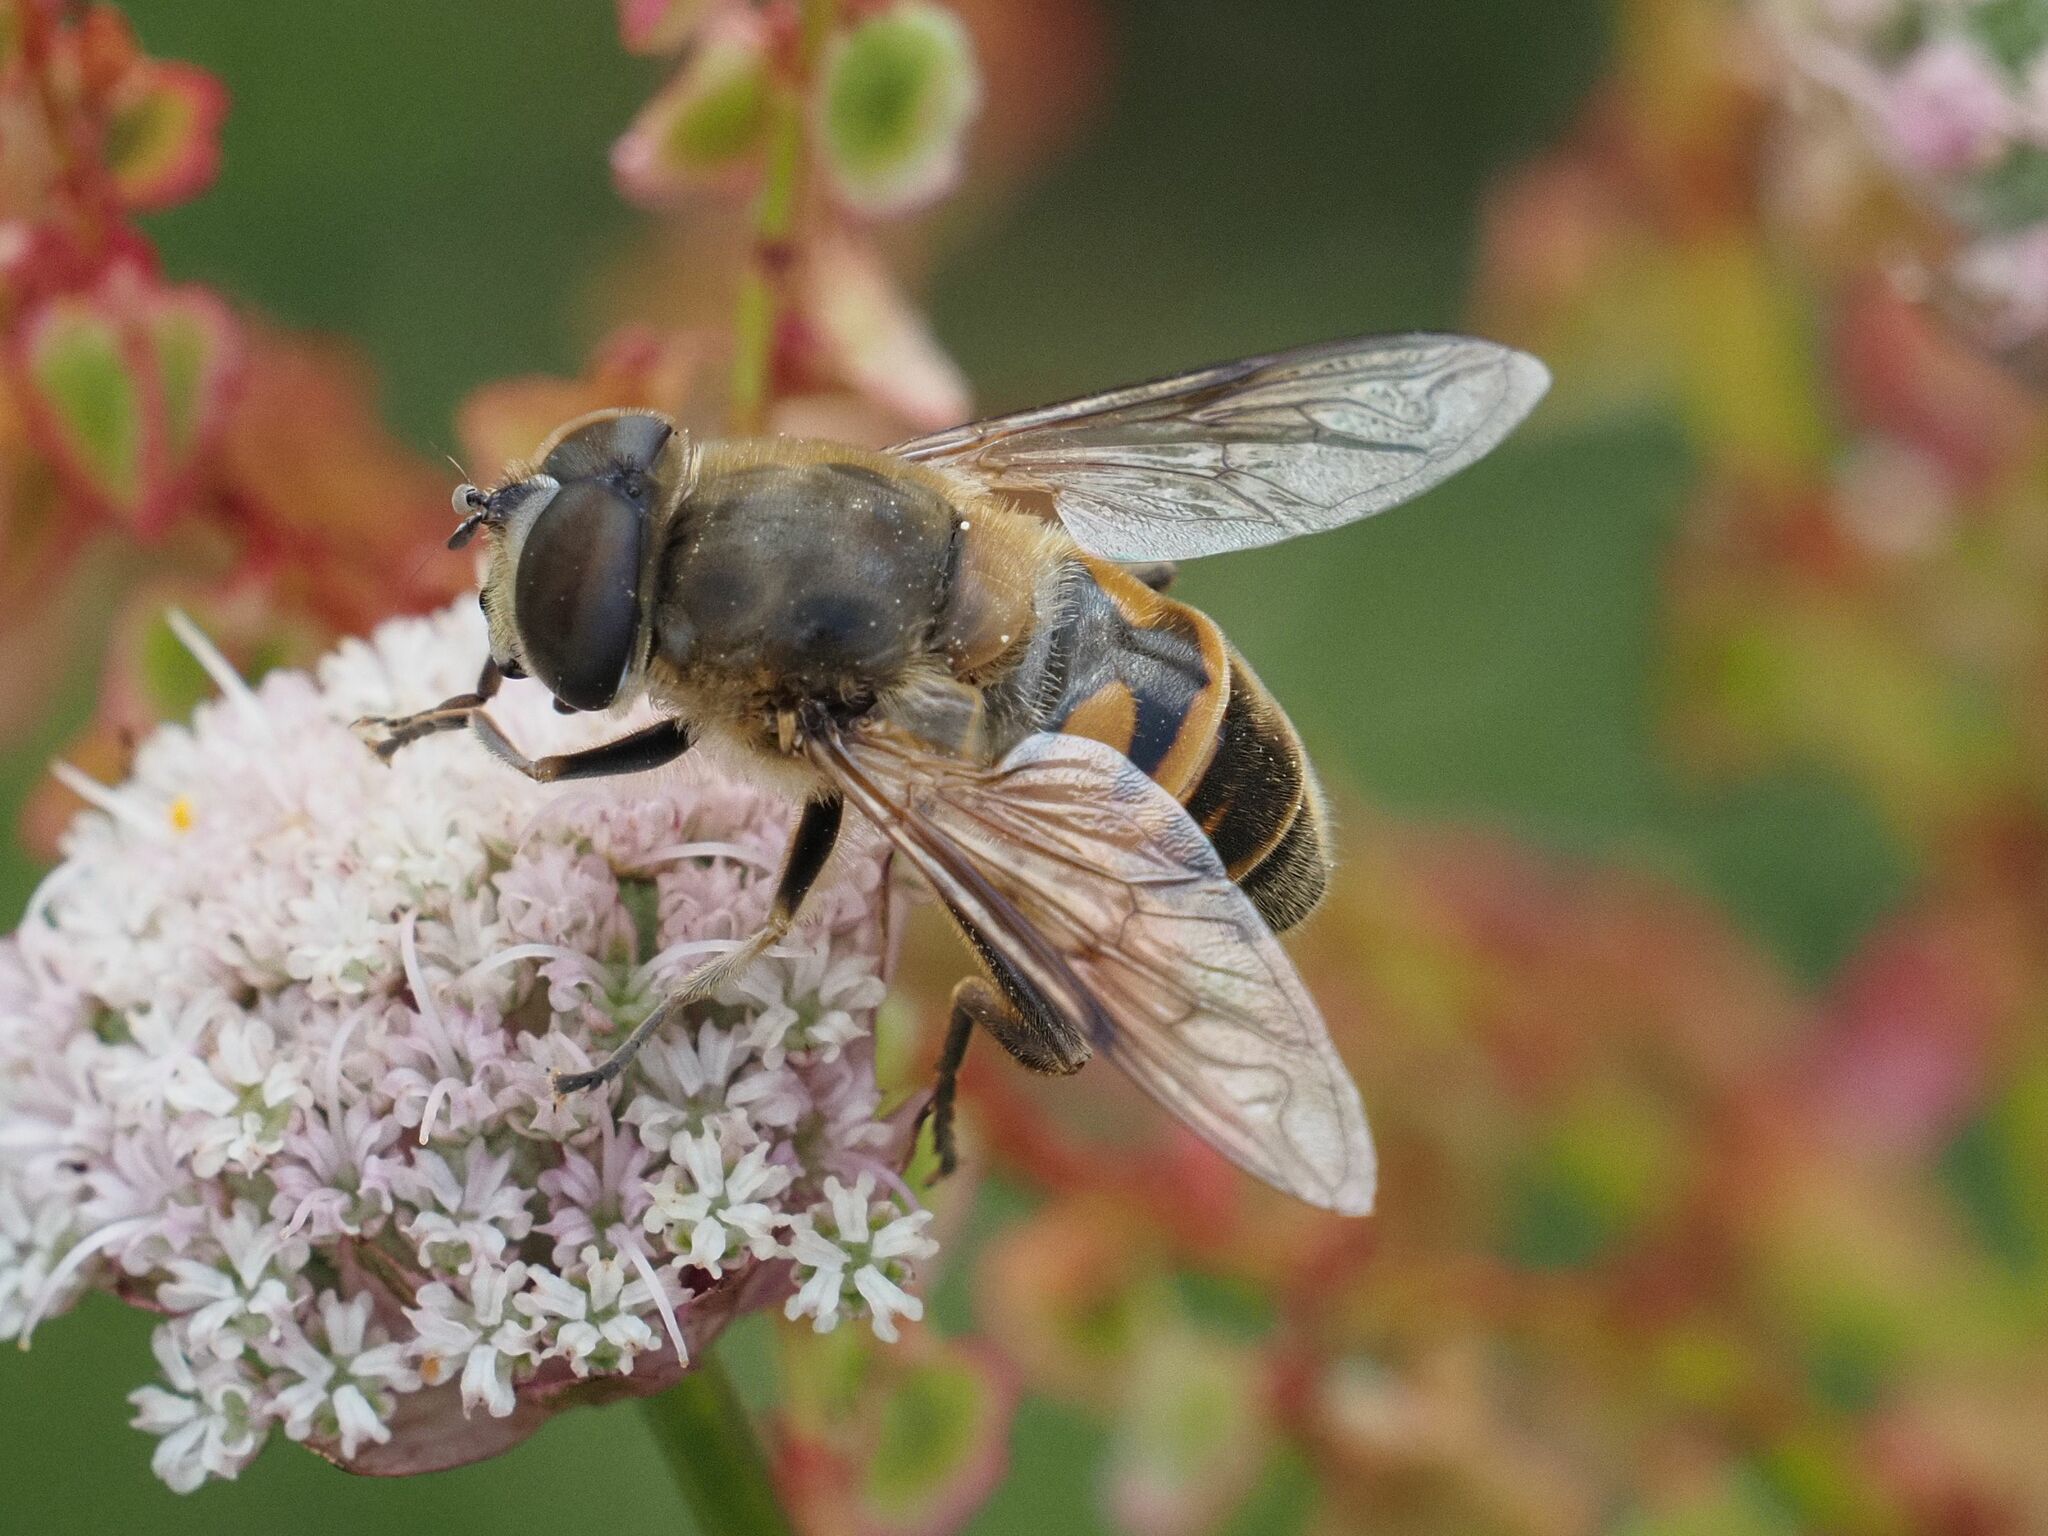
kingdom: Animalia
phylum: Arthropoda
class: Insecta
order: Diptera
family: Syrphidae
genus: Eristalis
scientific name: Eristalis tenax
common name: Drone fly
